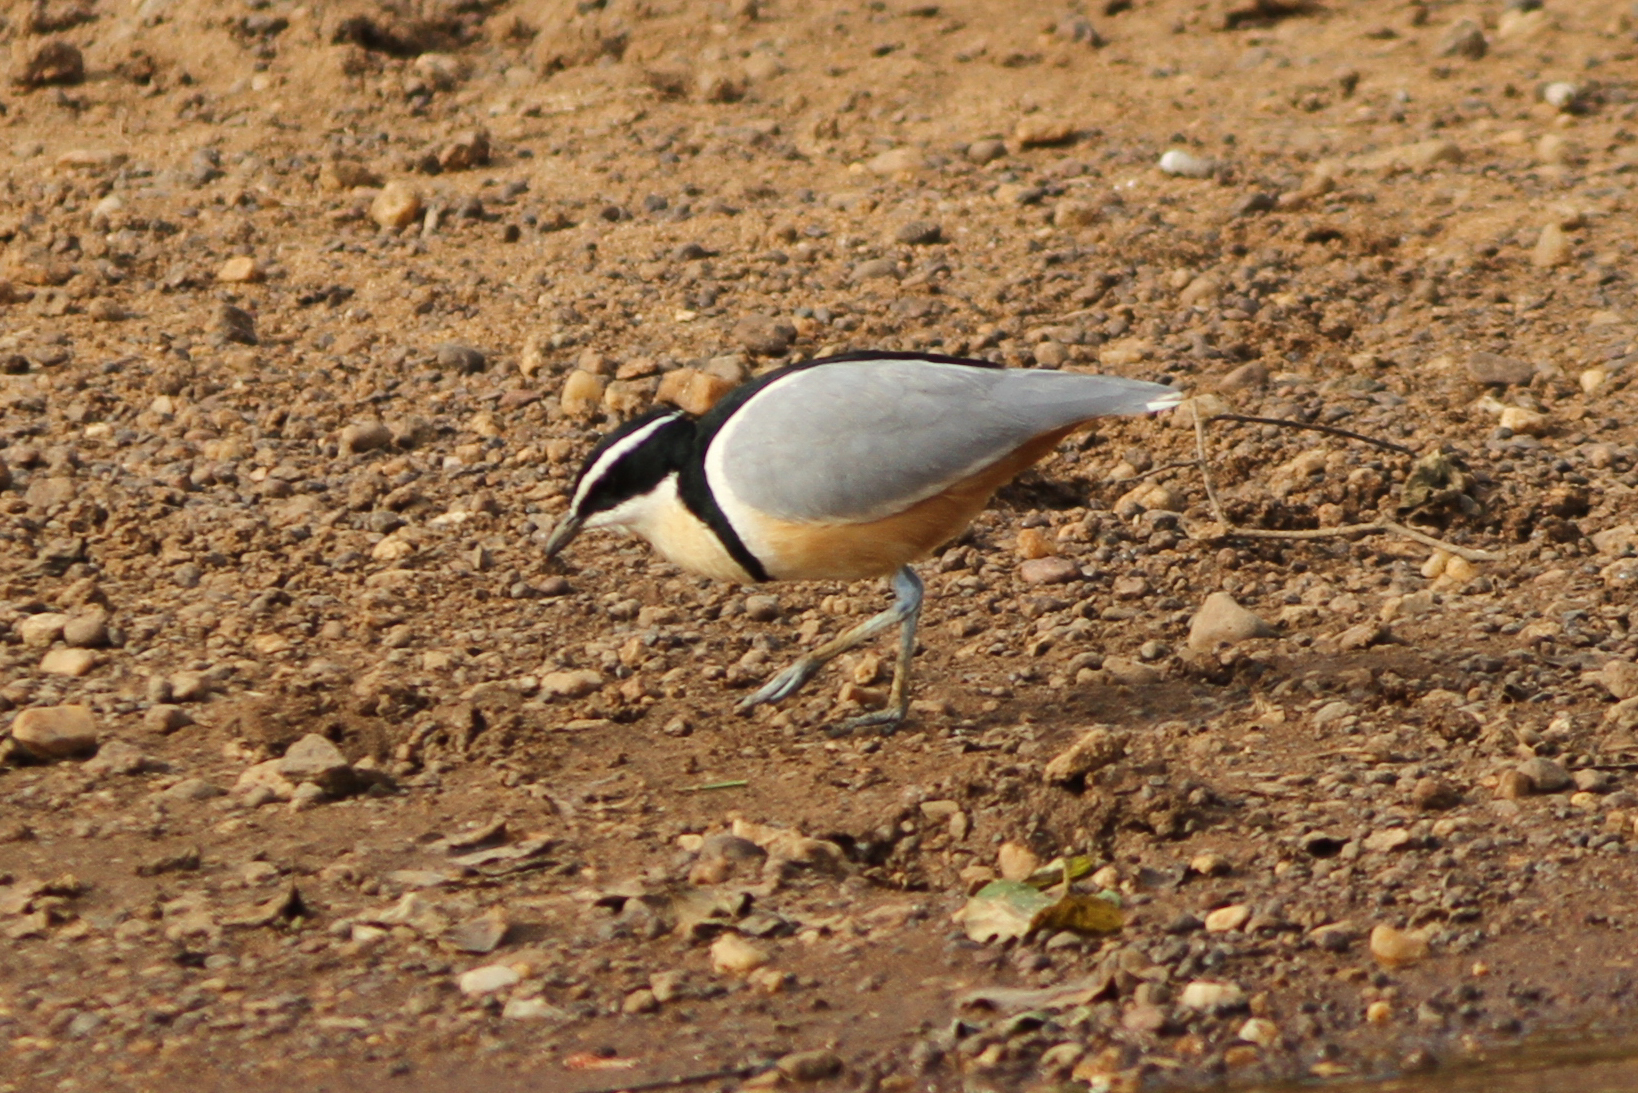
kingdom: Animalia
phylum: Chordata
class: Aves
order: Charadriiformes
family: Pluvianidae
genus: Pluvianus
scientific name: Pluvianus aegyptius
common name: Egyptian plover
